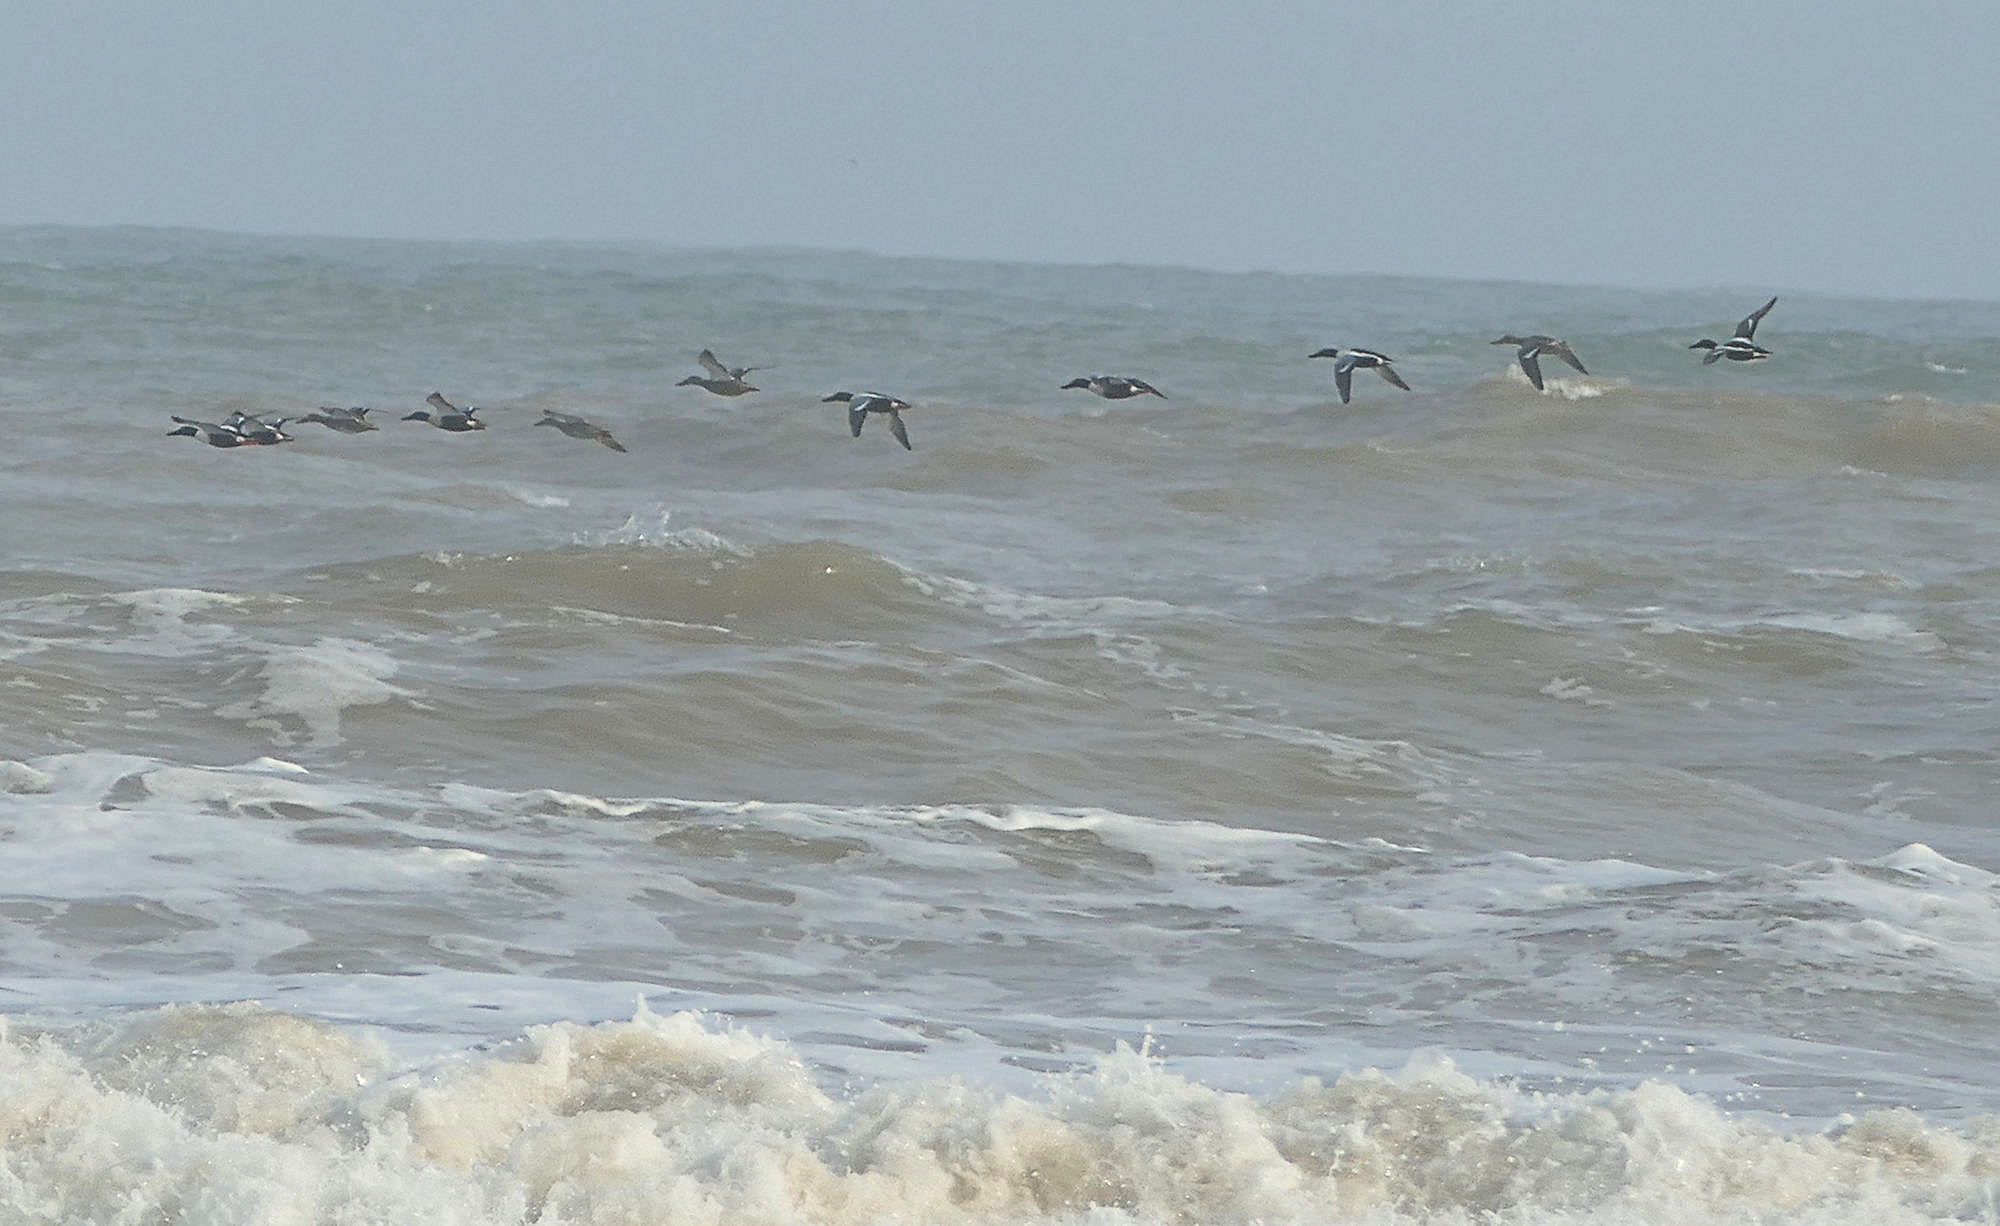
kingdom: Animalia
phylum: Chordata
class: Aves
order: Anseriformes
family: Anatidae
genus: Spatula
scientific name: Spatula clypeata
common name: Northern shoveler
